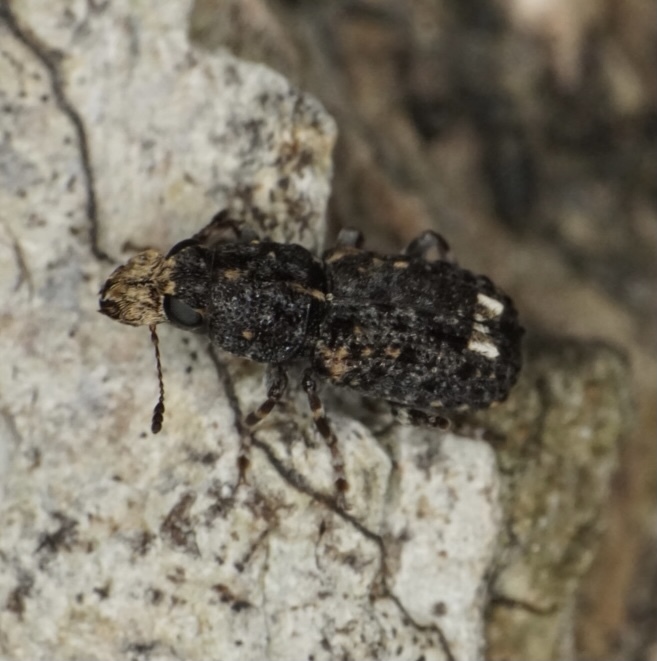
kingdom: Animalia
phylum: Arthropoda
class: Insecta
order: Coleoptera
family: Anthribidae
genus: Goniocloeus
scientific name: Goniocloeus bimaculatus
